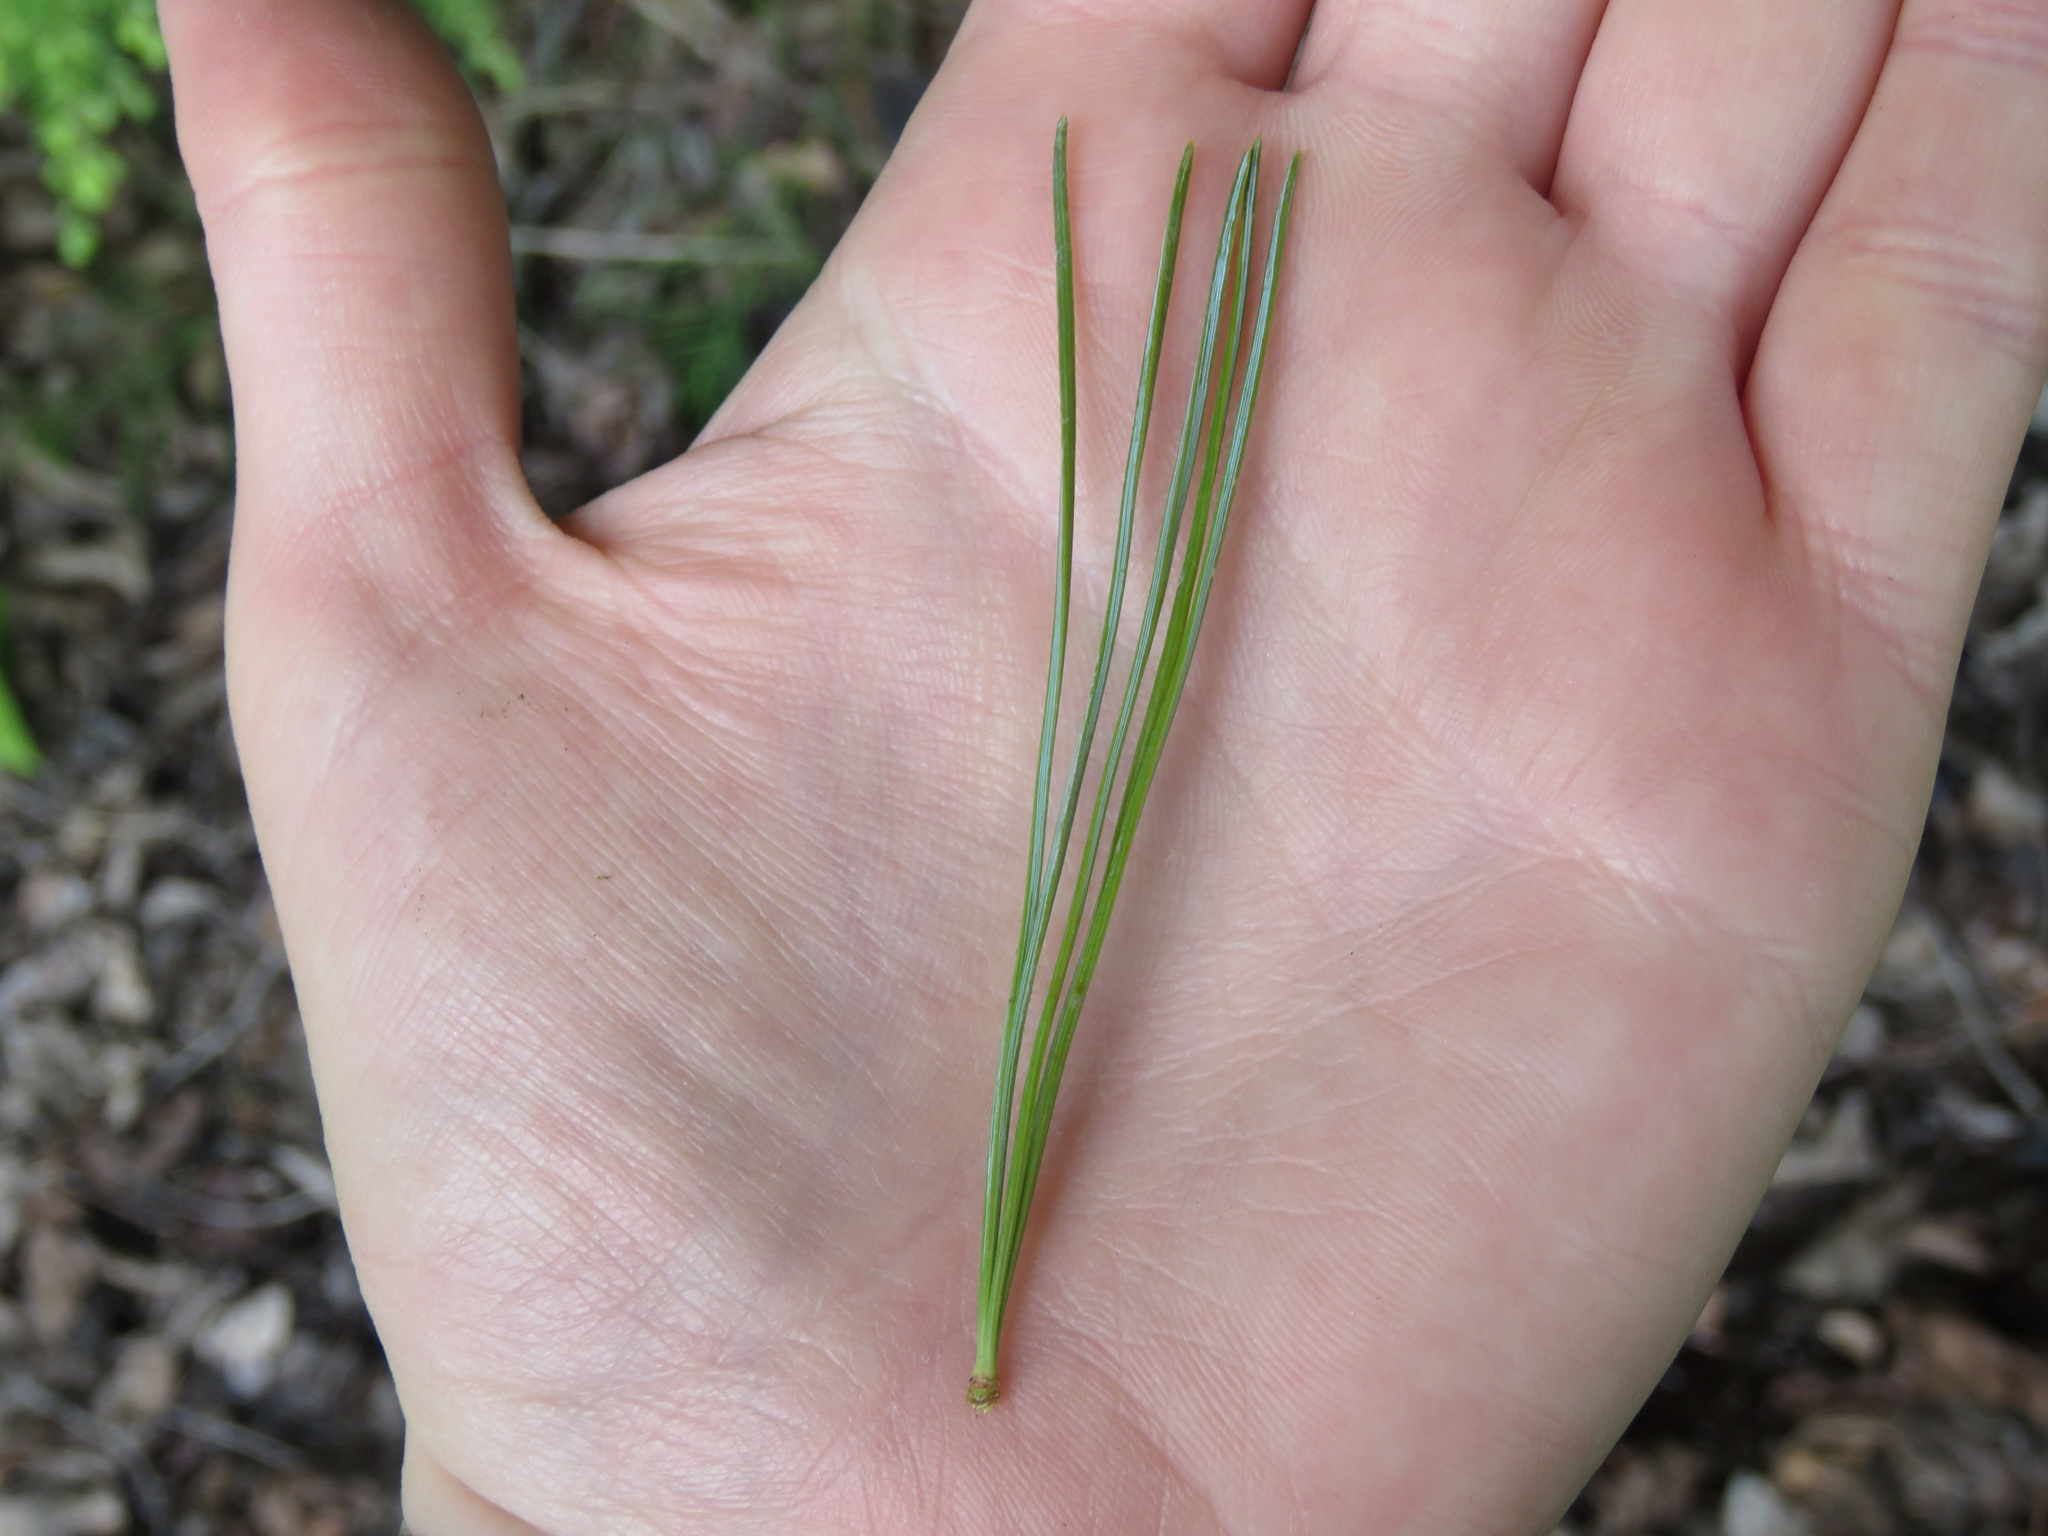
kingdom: Plantae
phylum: Tracheophyta
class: Pinopsida
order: Pinales
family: Pinaceae
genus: Pinus
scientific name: Pinus monticola
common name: Western white pine
